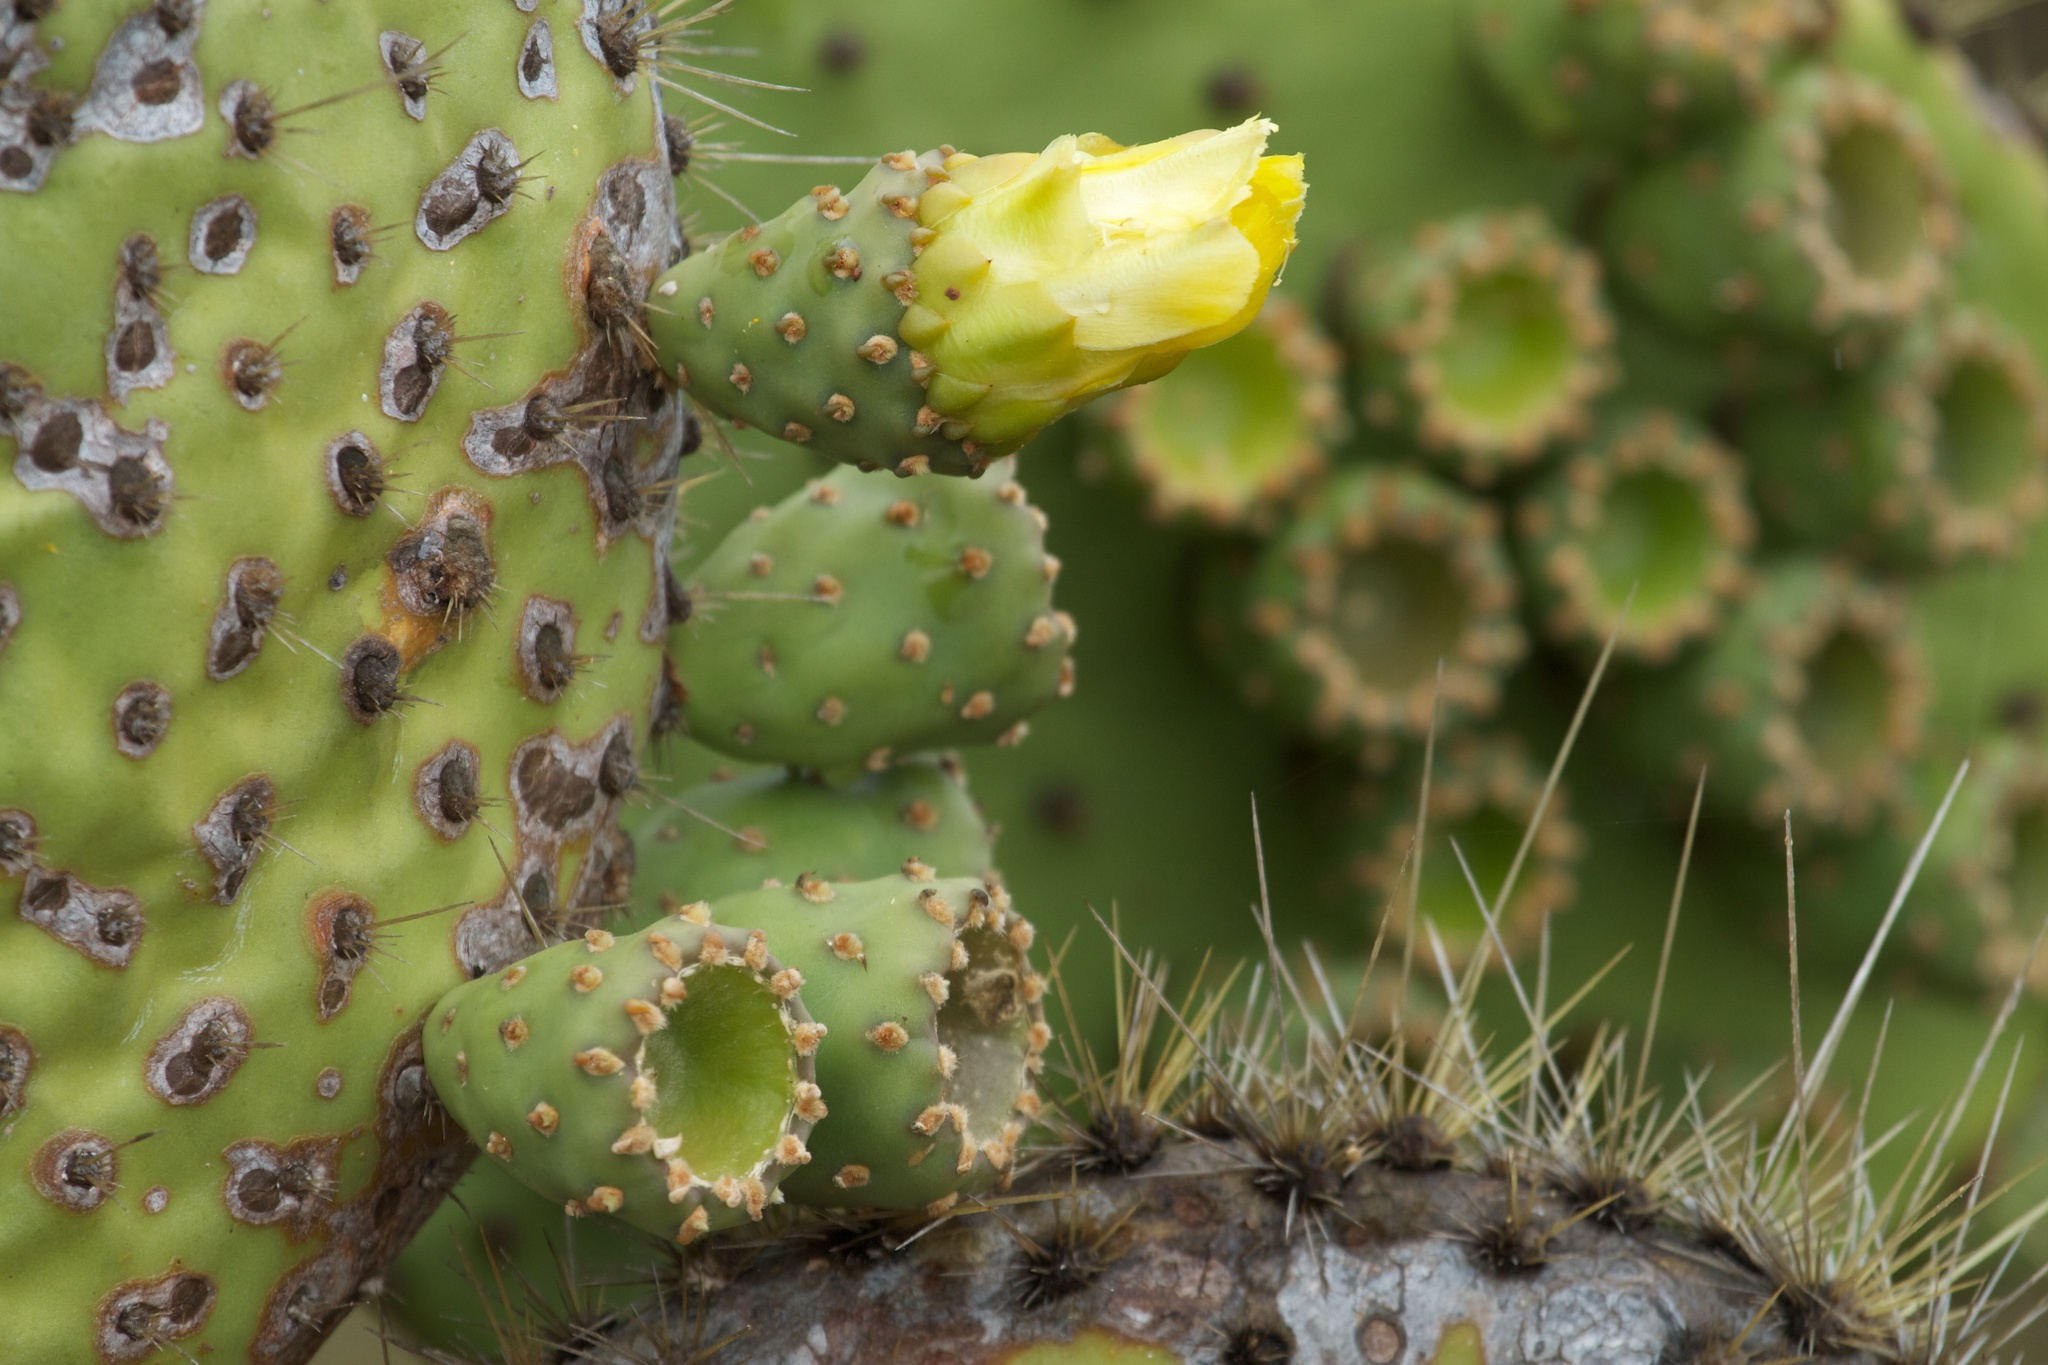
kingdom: Plantae
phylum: Tracheophyta
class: Magnoliopsida
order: Caryophyllales
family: Cactaceae
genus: Opuntia
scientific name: Opuntia galapageia
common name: Galápagos prickly pear
